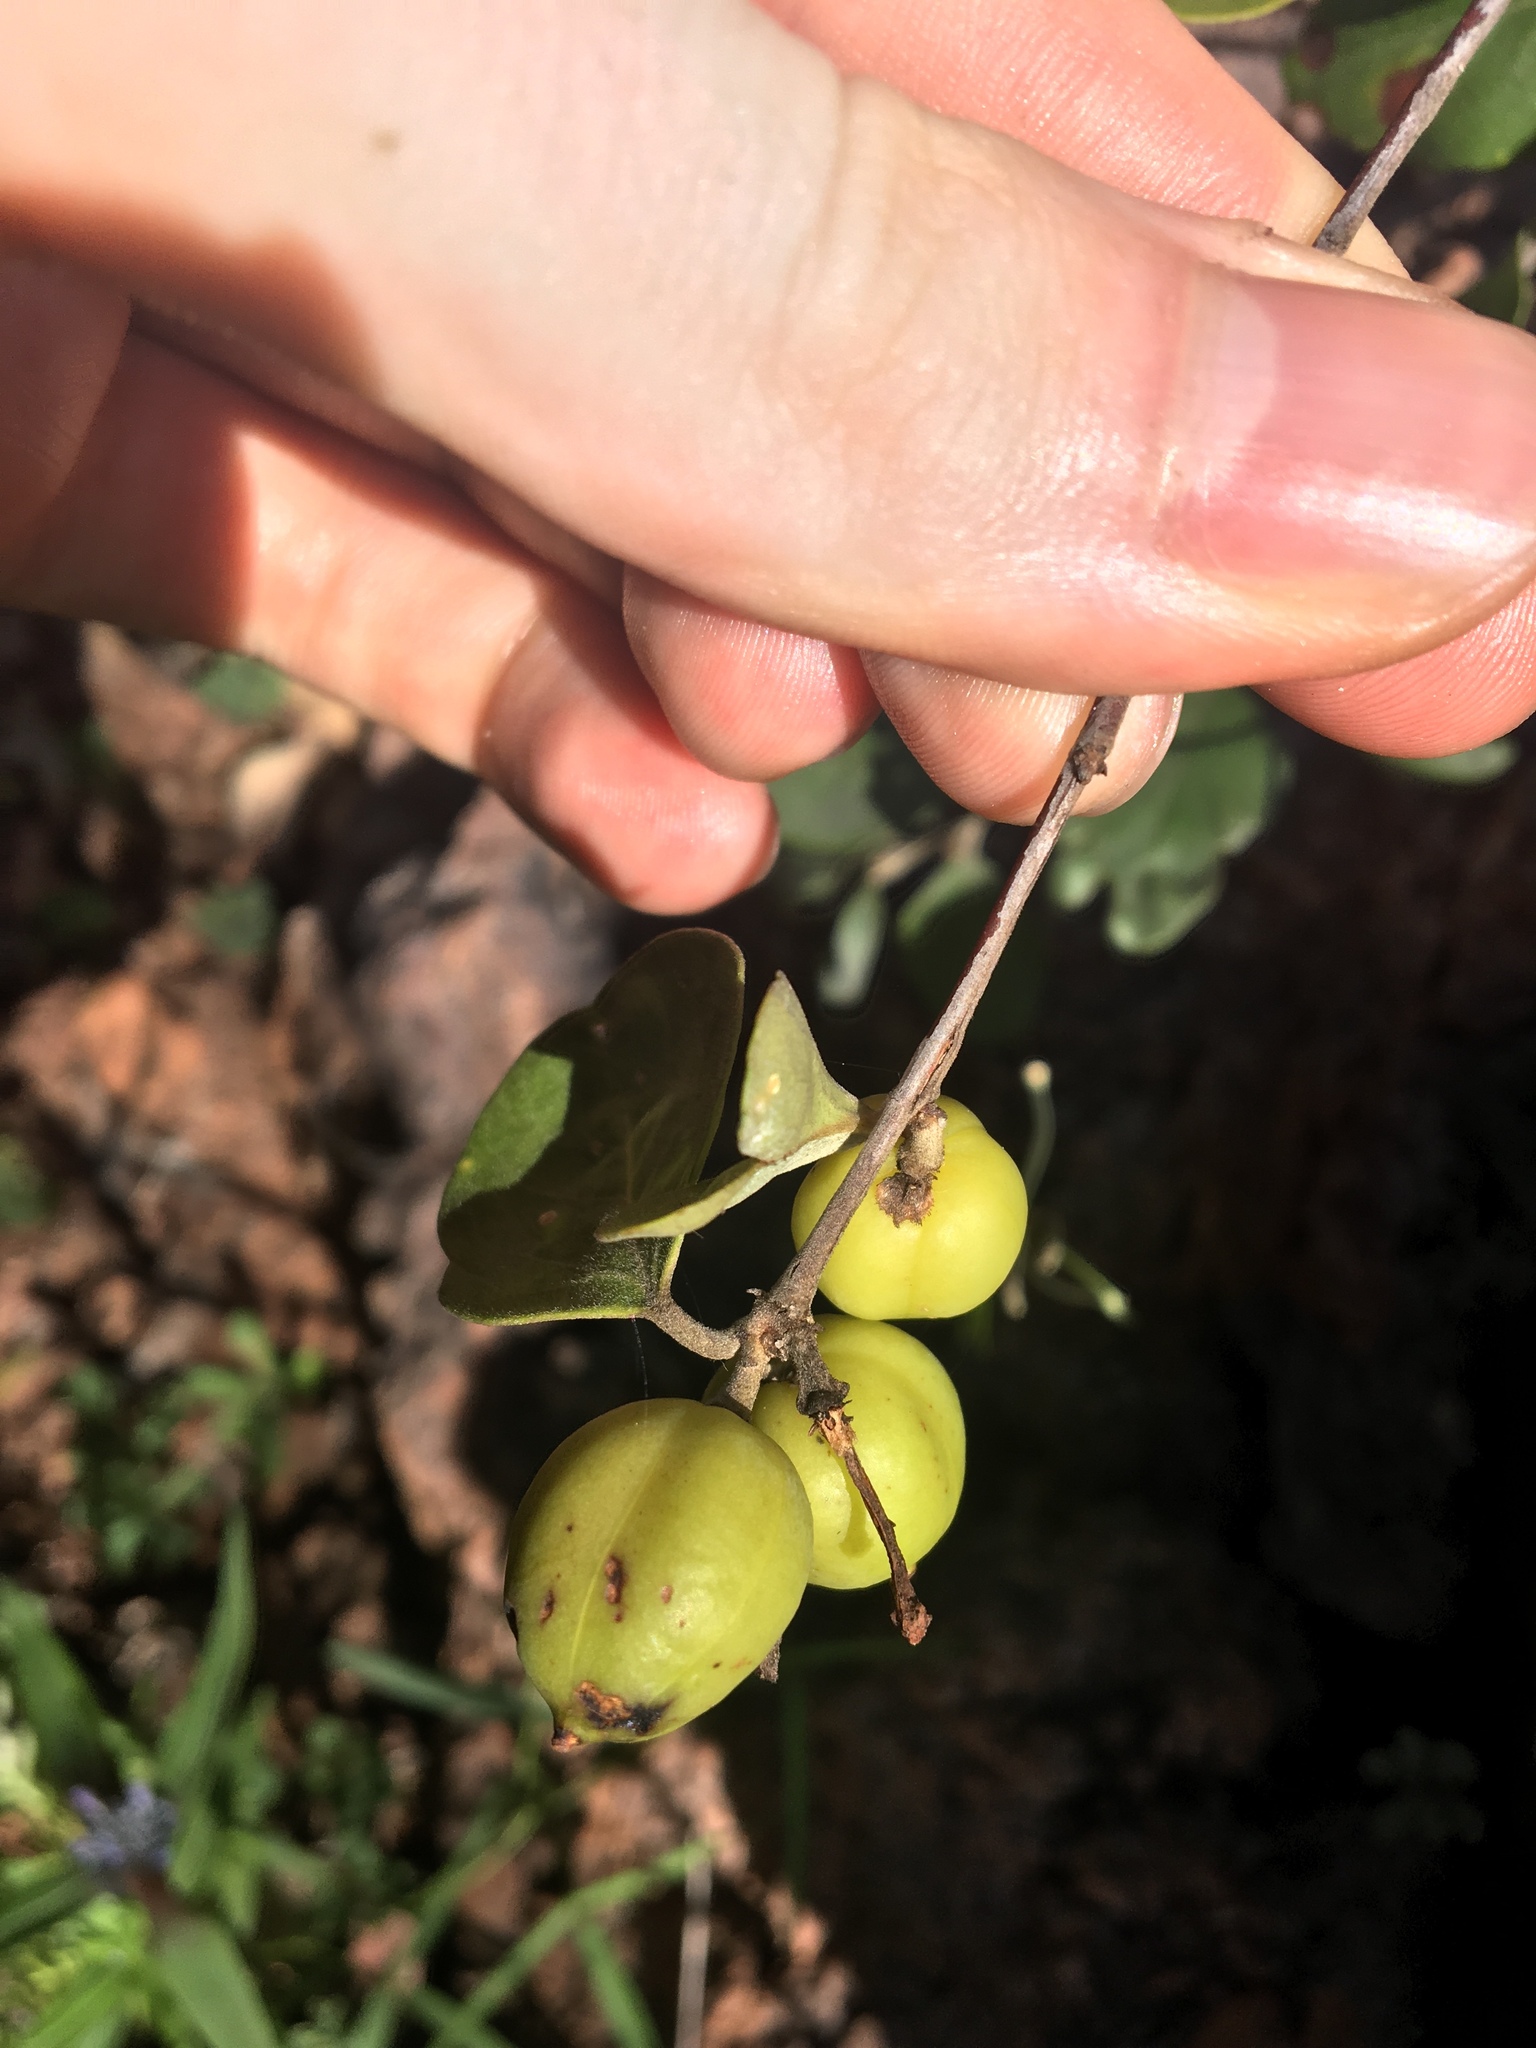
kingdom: Plantae
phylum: Tracheophyta
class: Magnoliopsida
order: Malpighiales
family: Picrodendraceae
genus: Petalostigma
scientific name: Petalostigma quadriloculare
